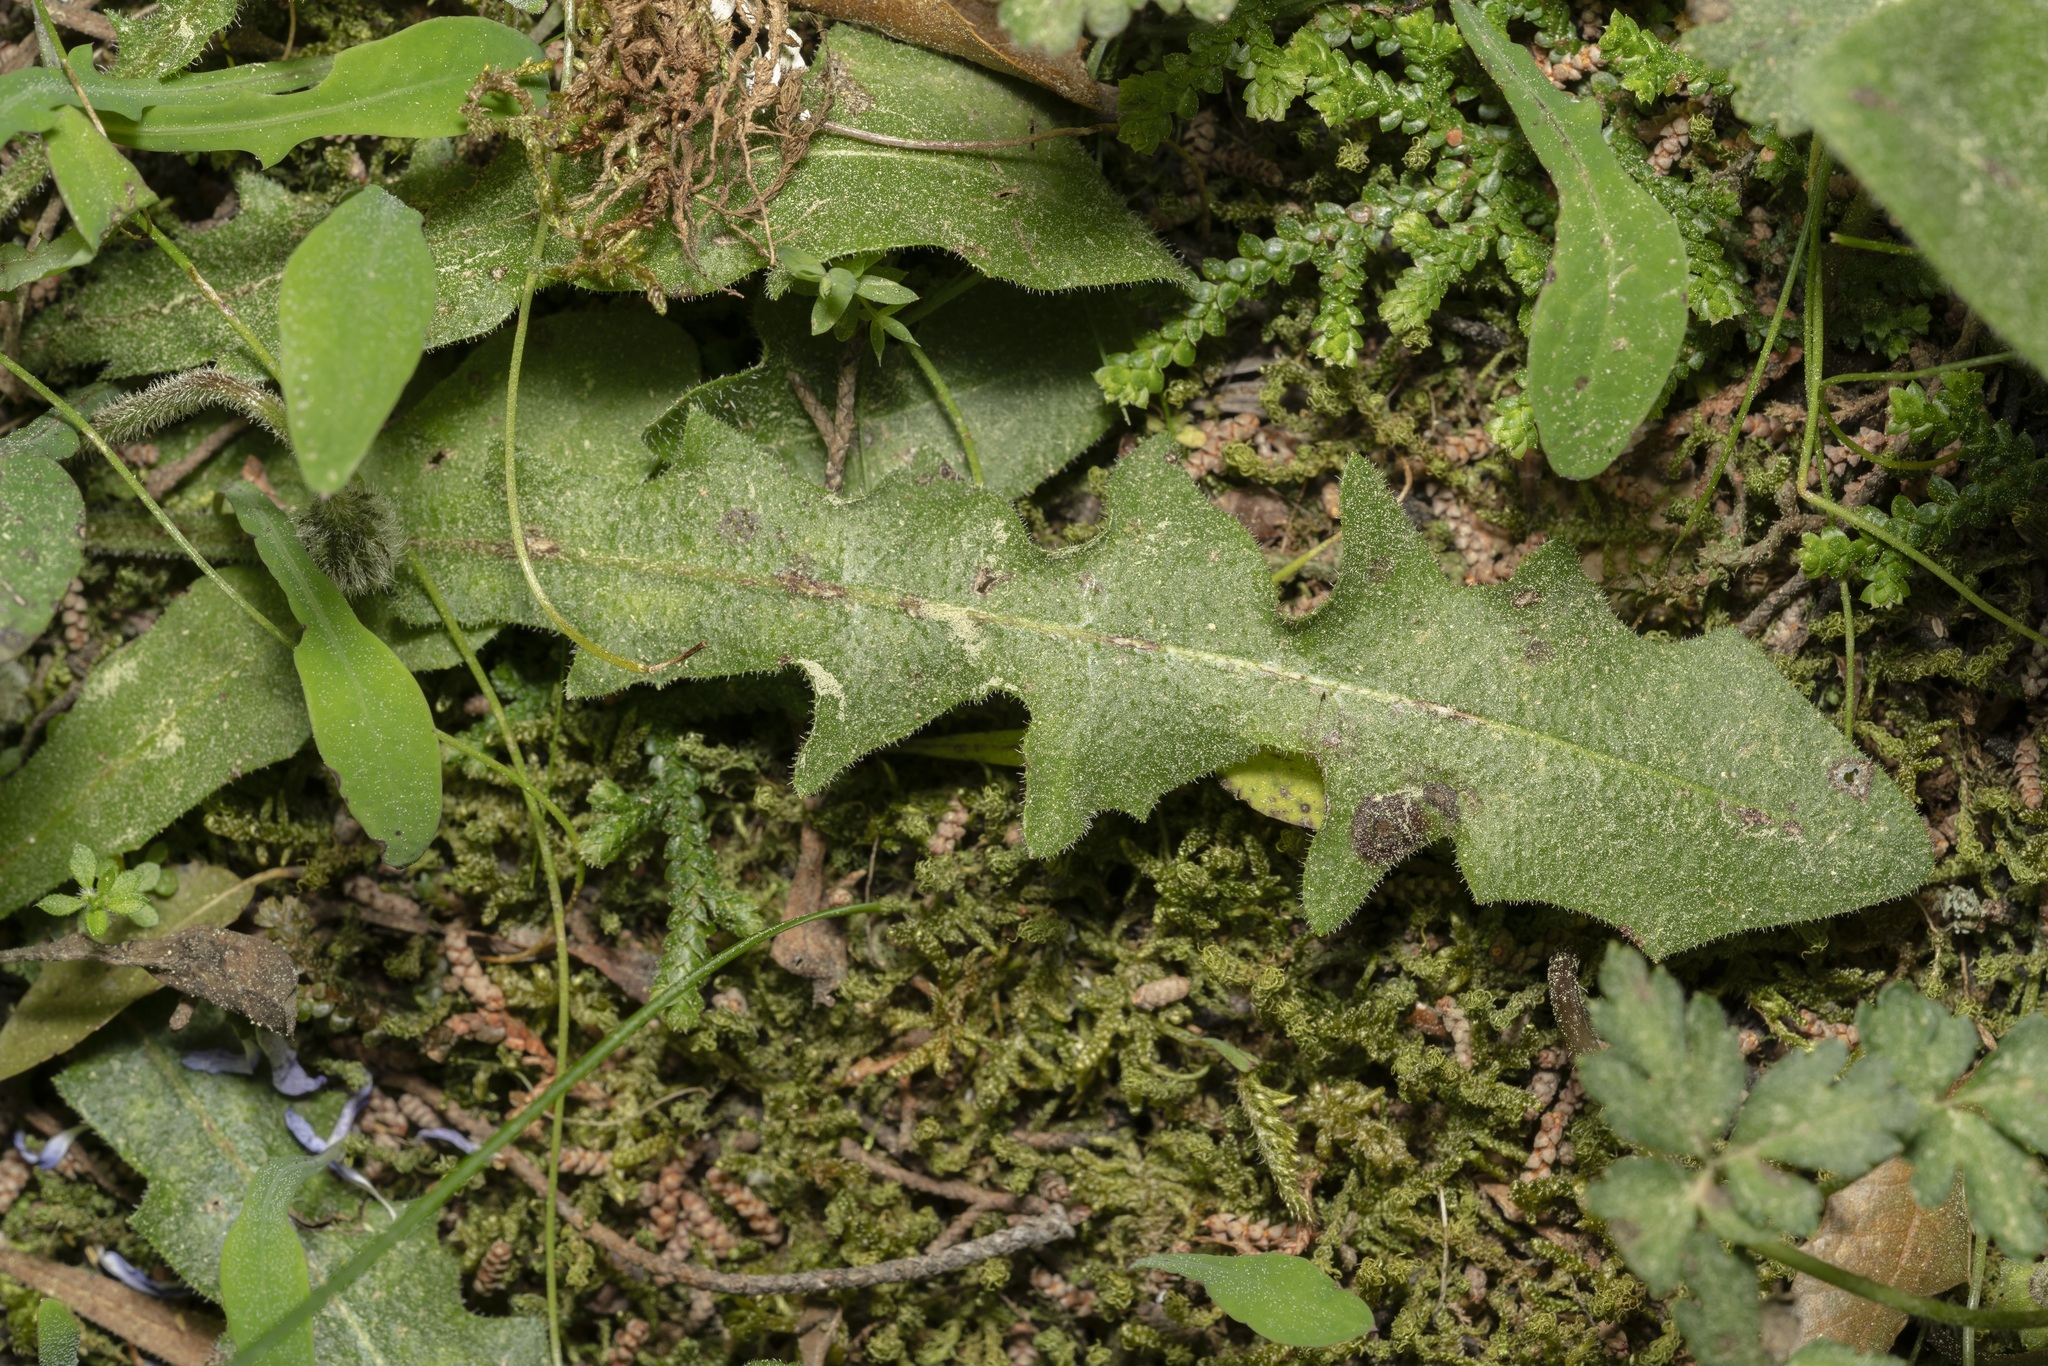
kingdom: Plantae
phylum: Tracheophyta
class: Magnoliopsida
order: Asterales
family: Asteraceae
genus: Leontodon
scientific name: Leontodon tuberosus
